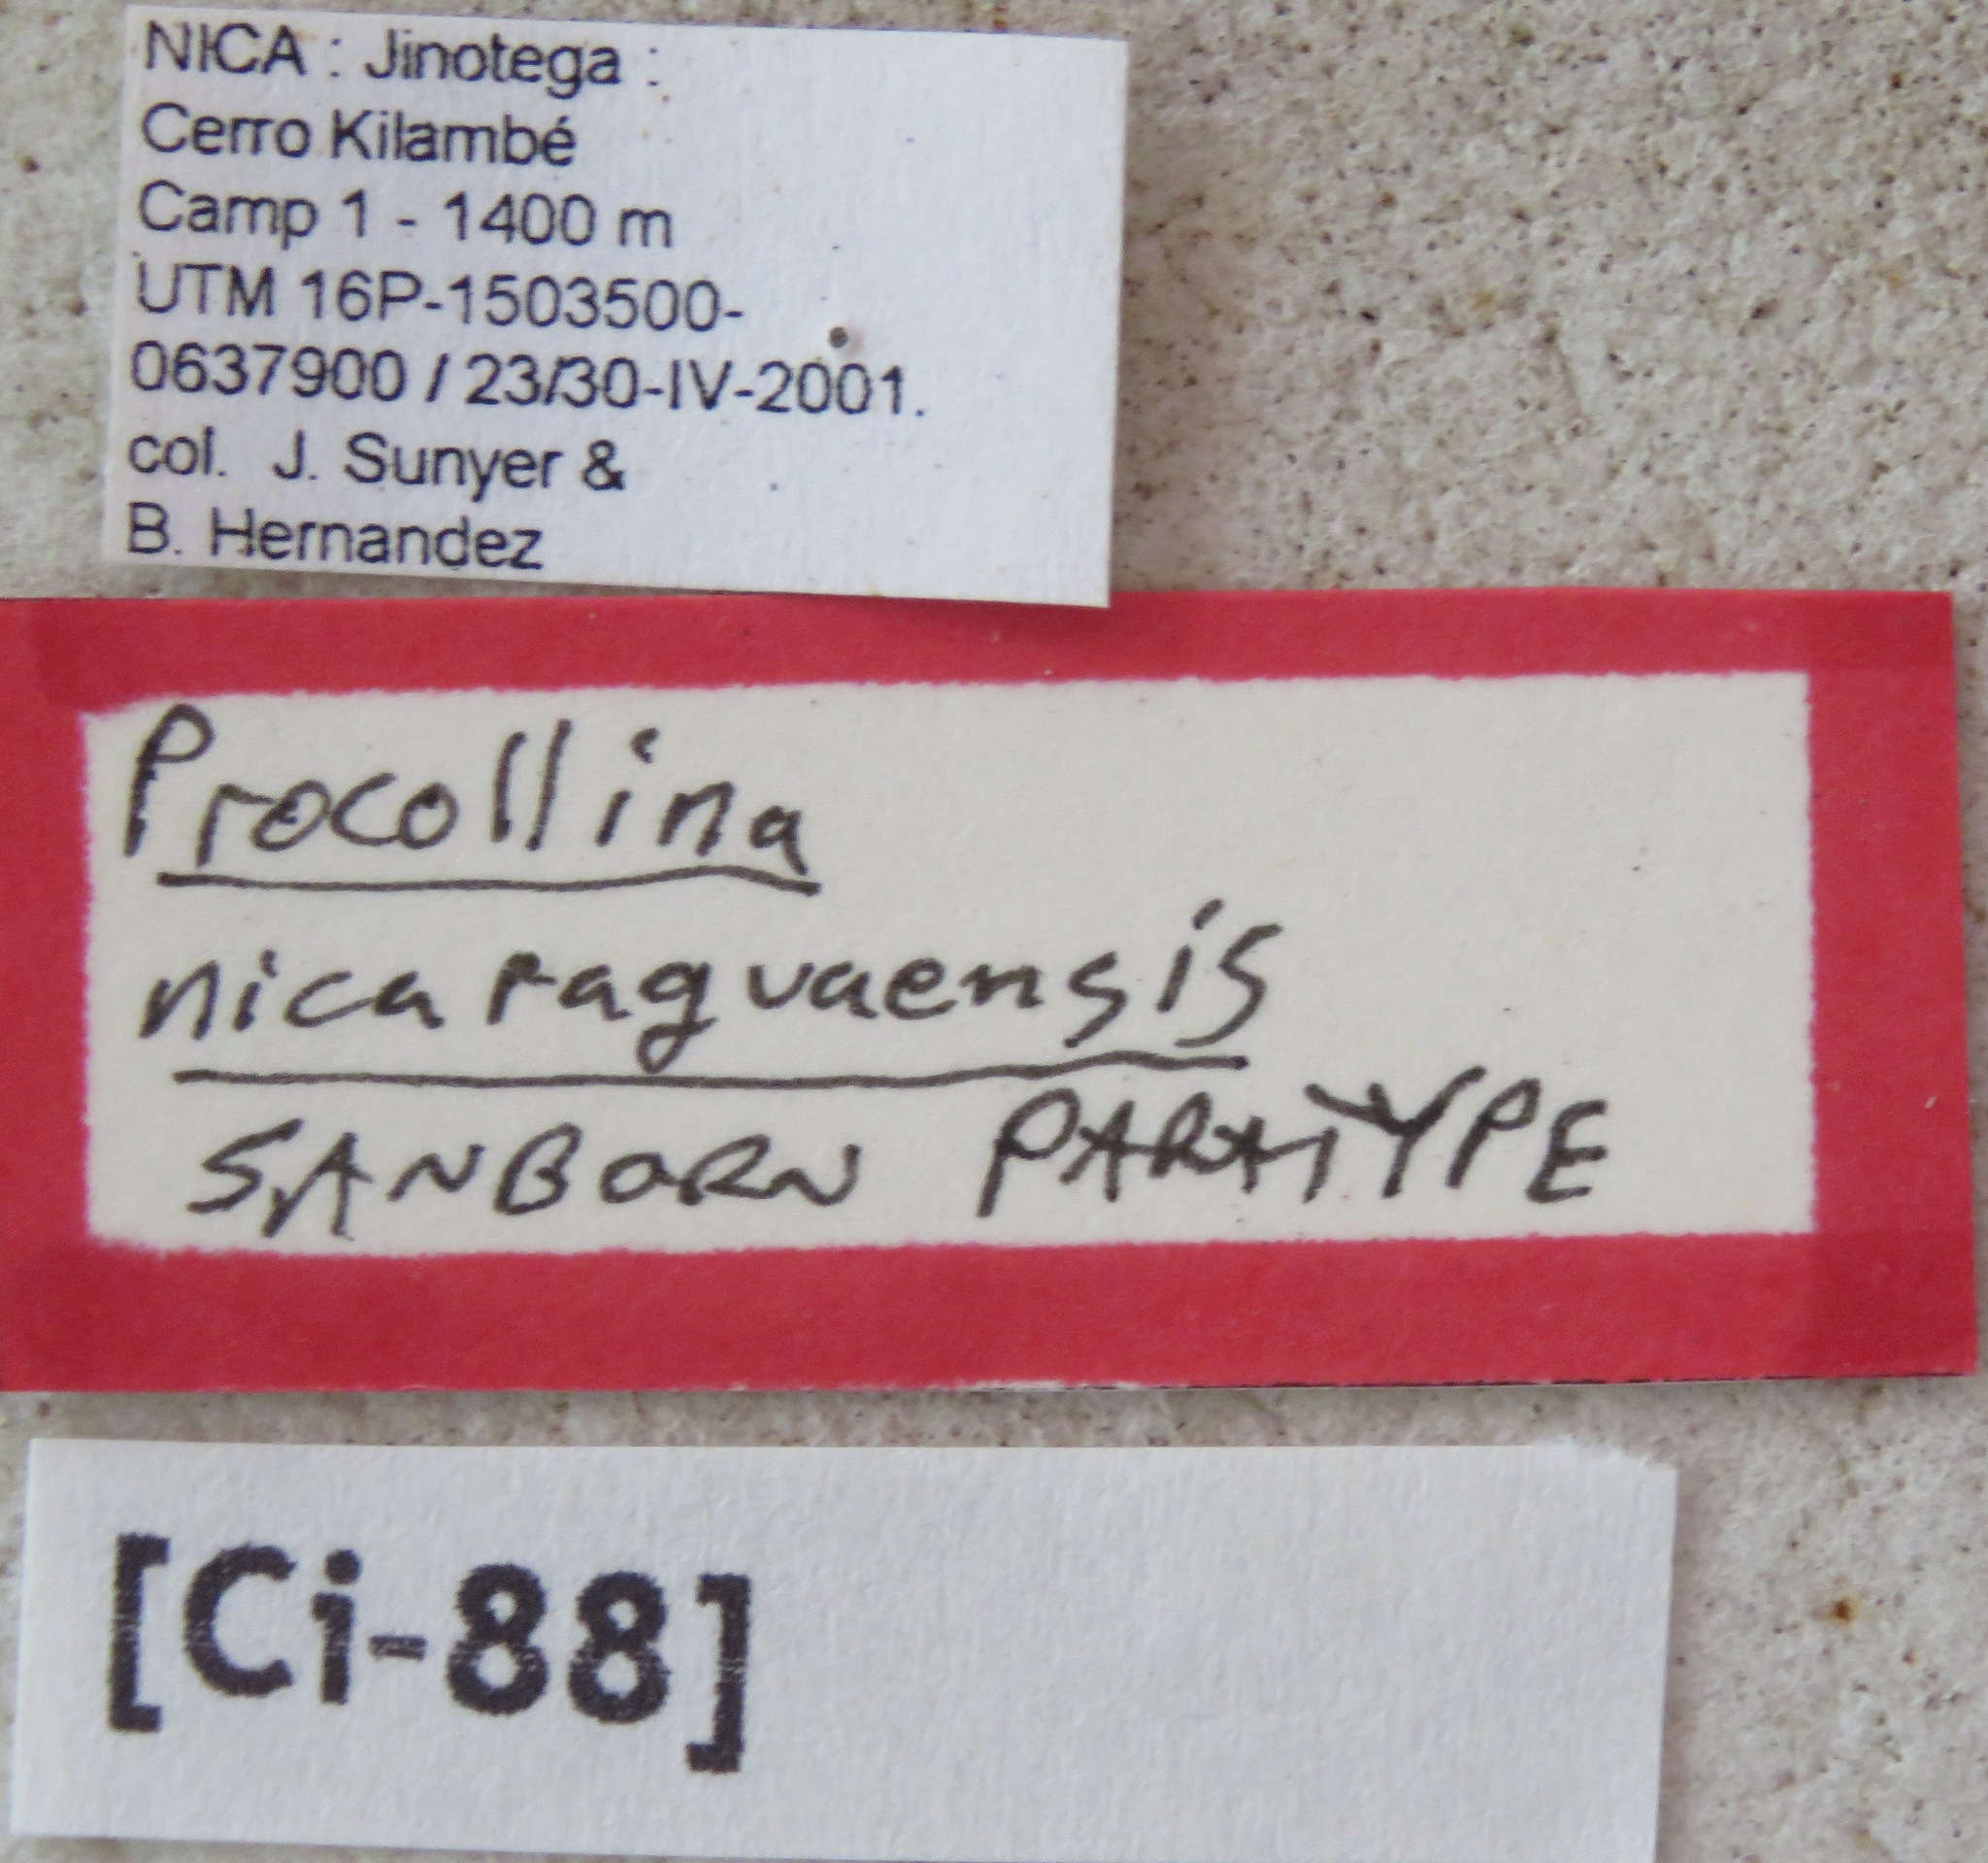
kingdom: Animalia
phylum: Arthropoda
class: Insecta
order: Hemiptera
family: Cicadidae
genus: Procollina
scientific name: Procollina nicaraguaensis
